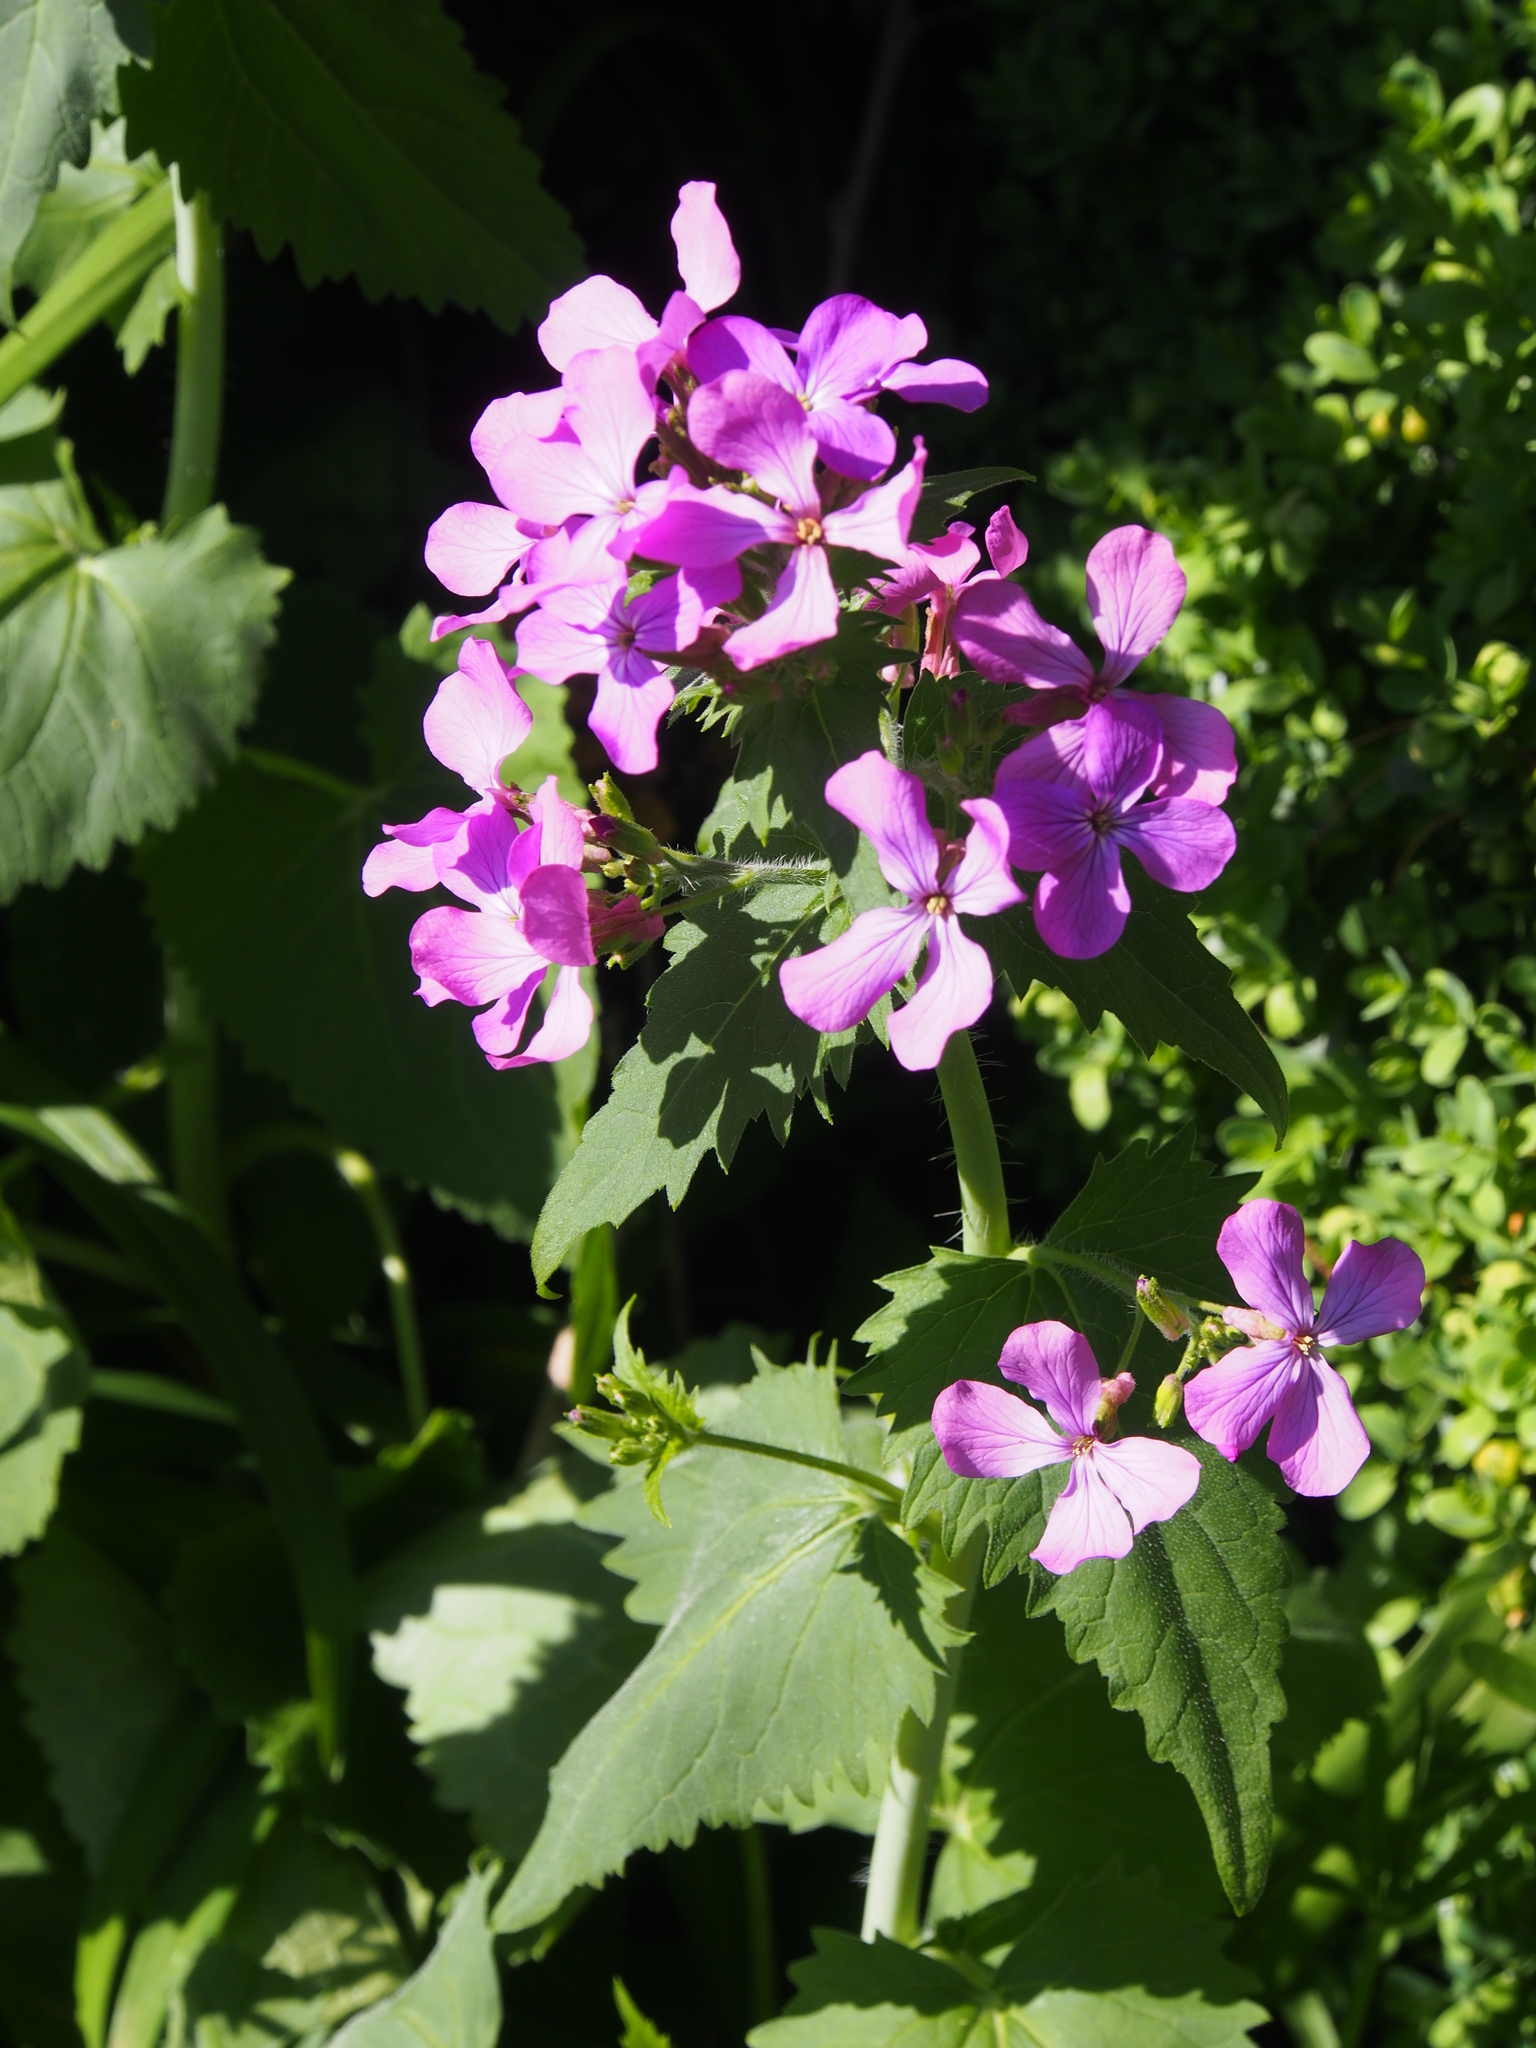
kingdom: Plantae
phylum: Tracheophyta
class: Magnoliopsida
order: Brassicales
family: Brassicaceae
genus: Lunaria
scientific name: Lunaria annua
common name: Honesty
